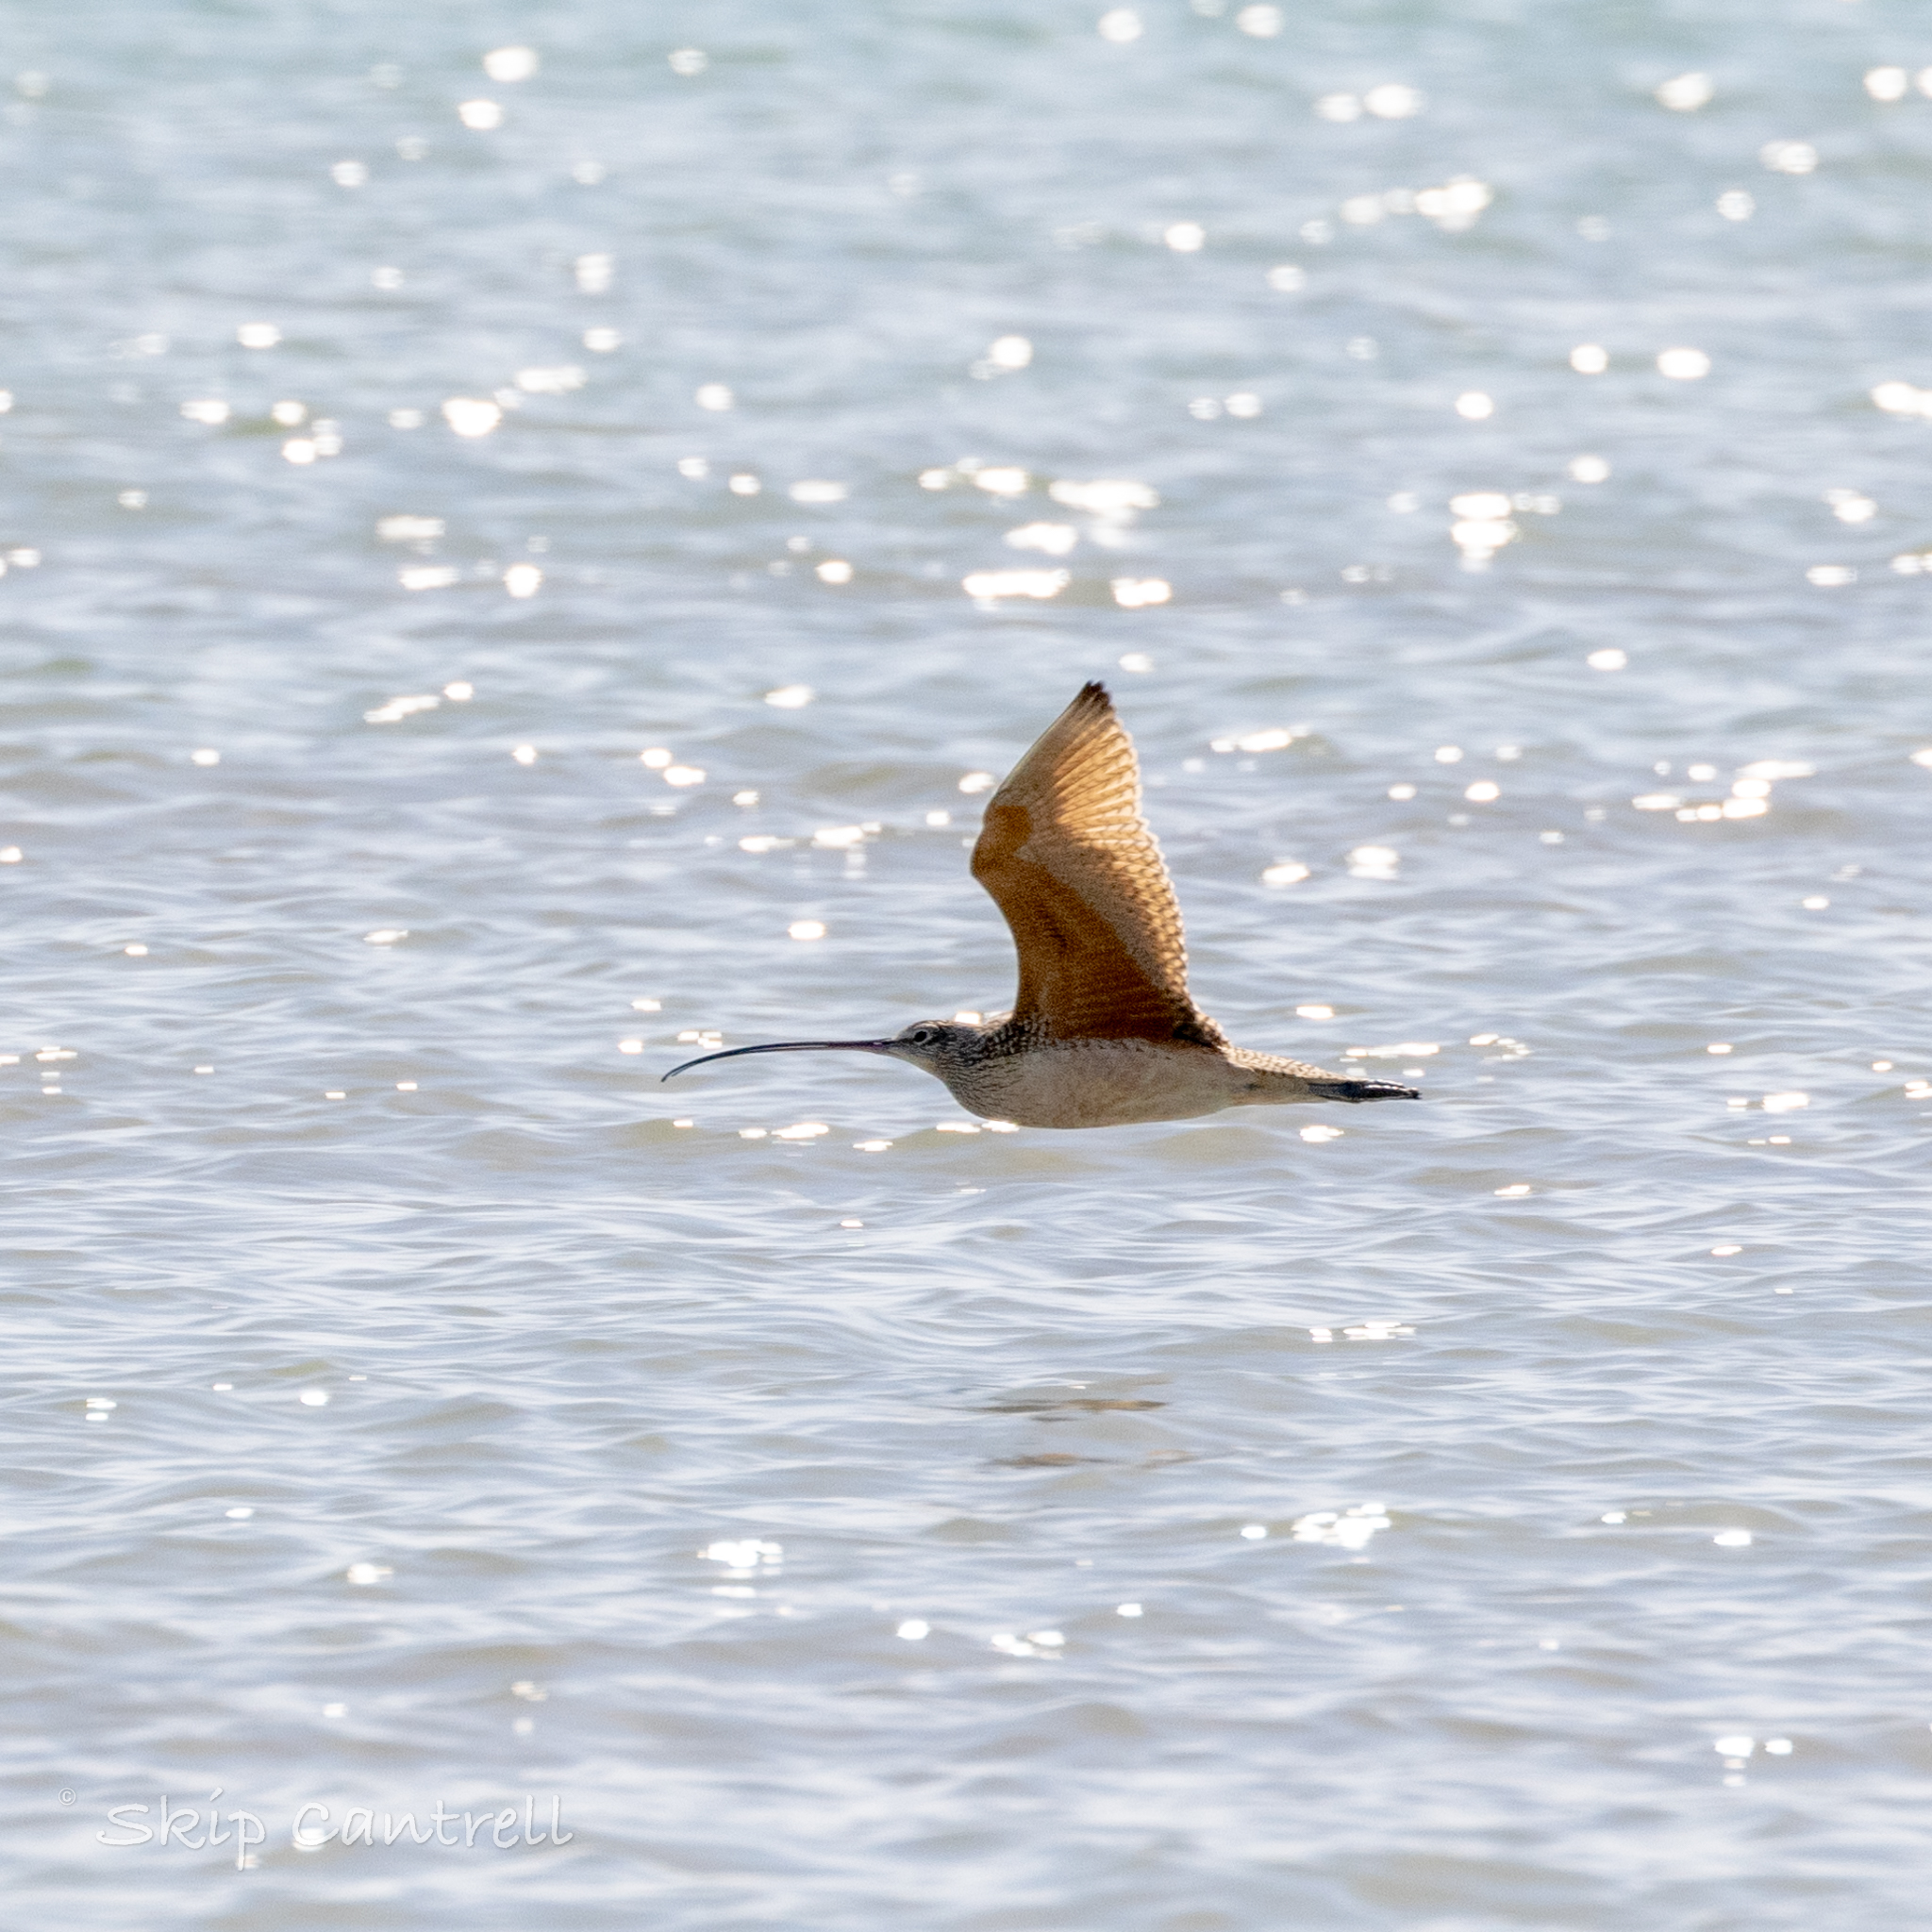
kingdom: Animalia
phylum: Chordata
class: Aves
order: Charadriiformes
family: Scolopacidae
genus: Numenius
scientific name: Numenius americanus
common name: Long-billed curlew
